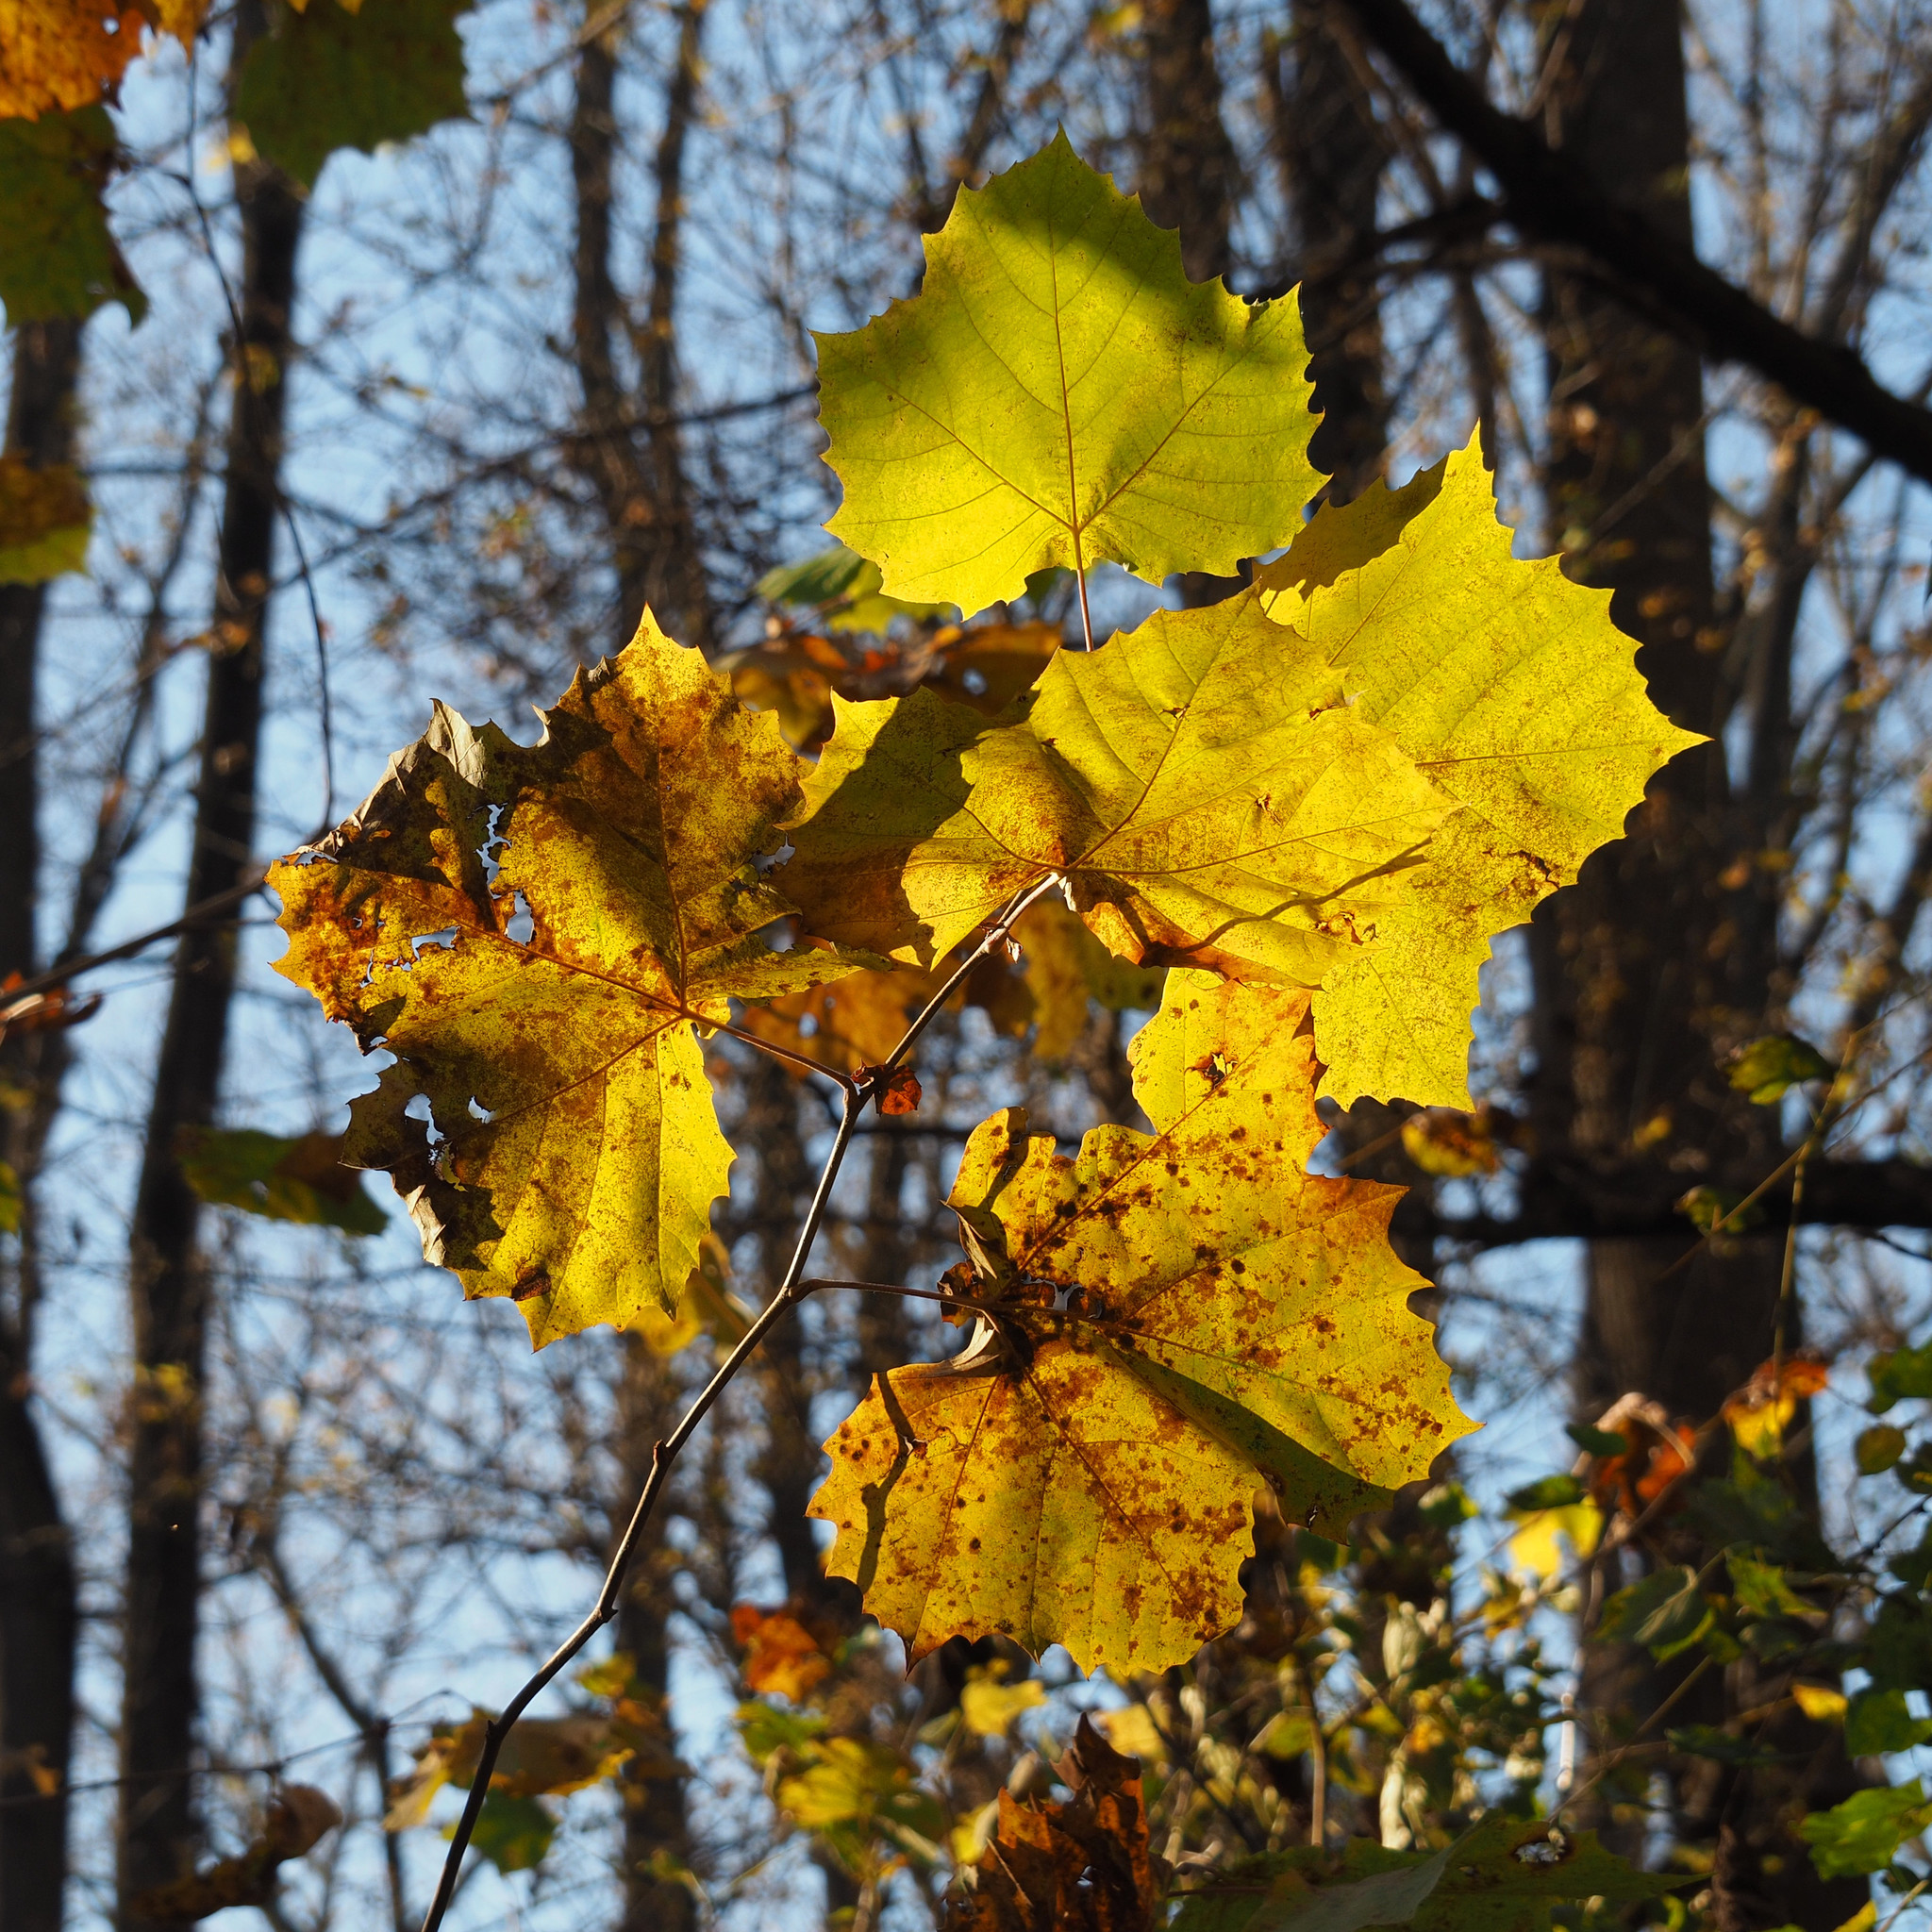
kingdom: Plantae
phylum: Tracheophyta
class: Magnoliopsida
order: Proteales
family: Platanaceae
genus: Platanus
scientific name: Platanus occidentalis
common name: American sycamore
